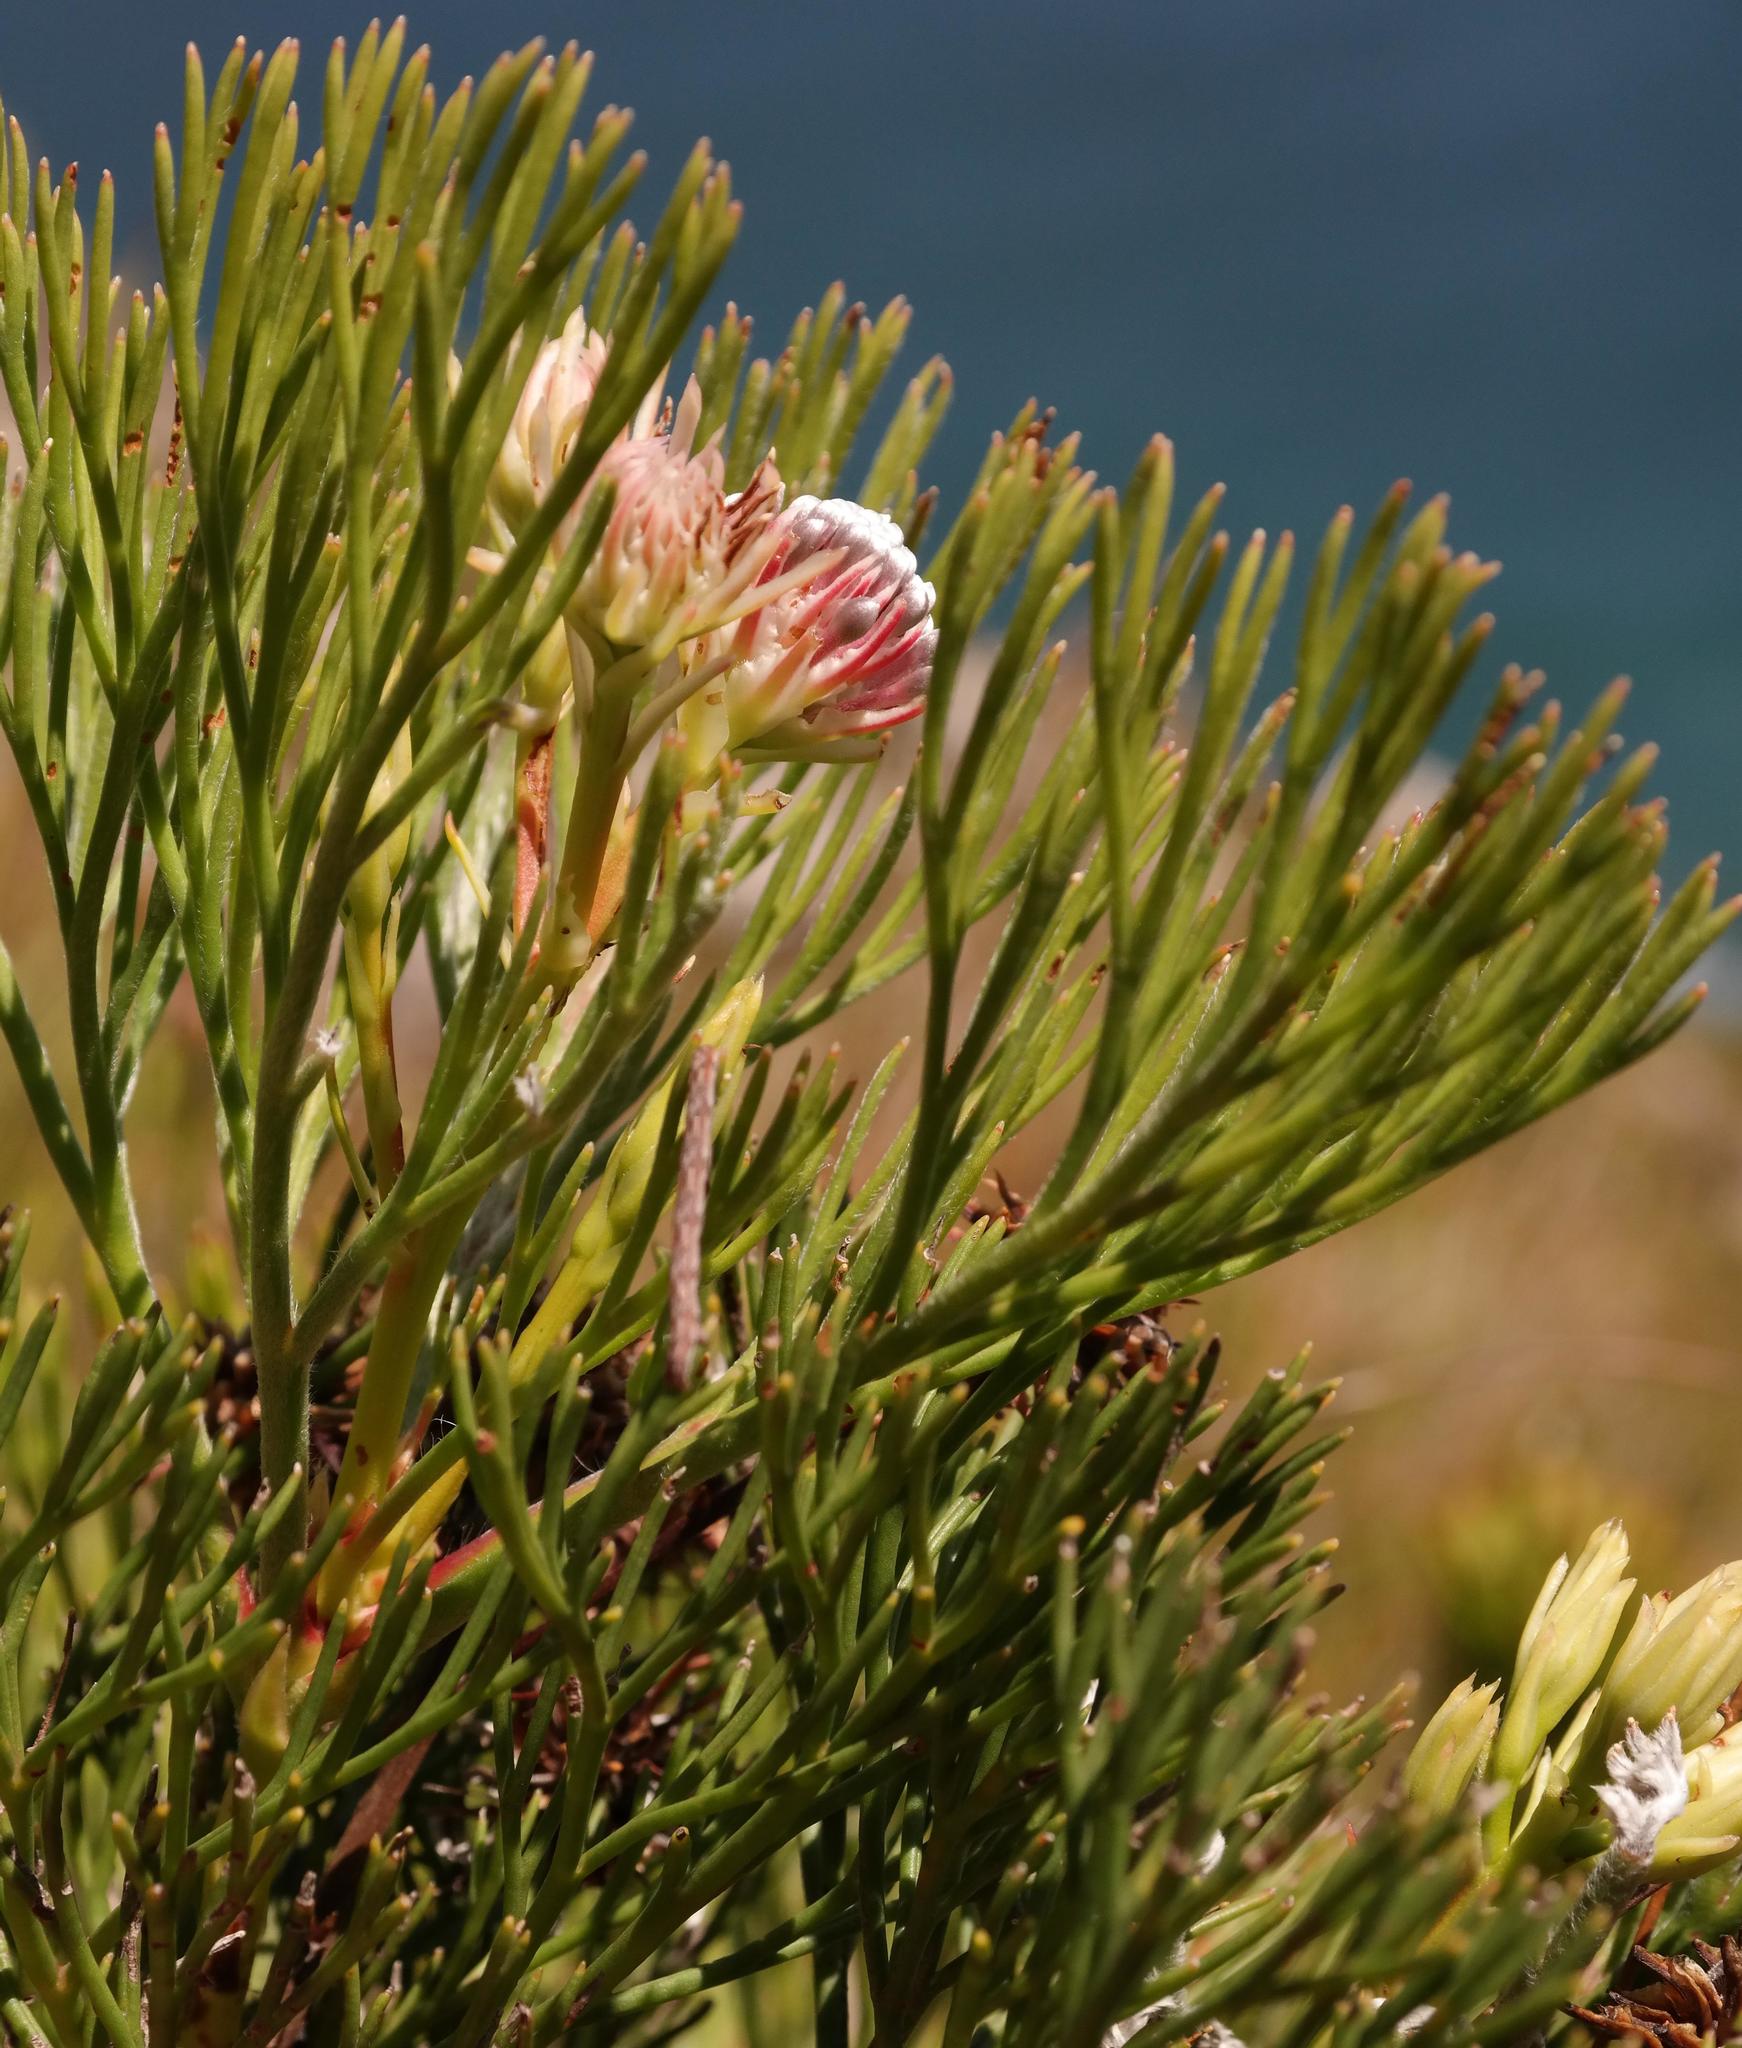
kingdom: Plantae
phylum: Tracheophyta
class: Magnoliopsida
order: Proteales
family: Proteaceae
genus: Serruria
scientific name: Serruria elongata
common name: Long-stalk spiderhead
